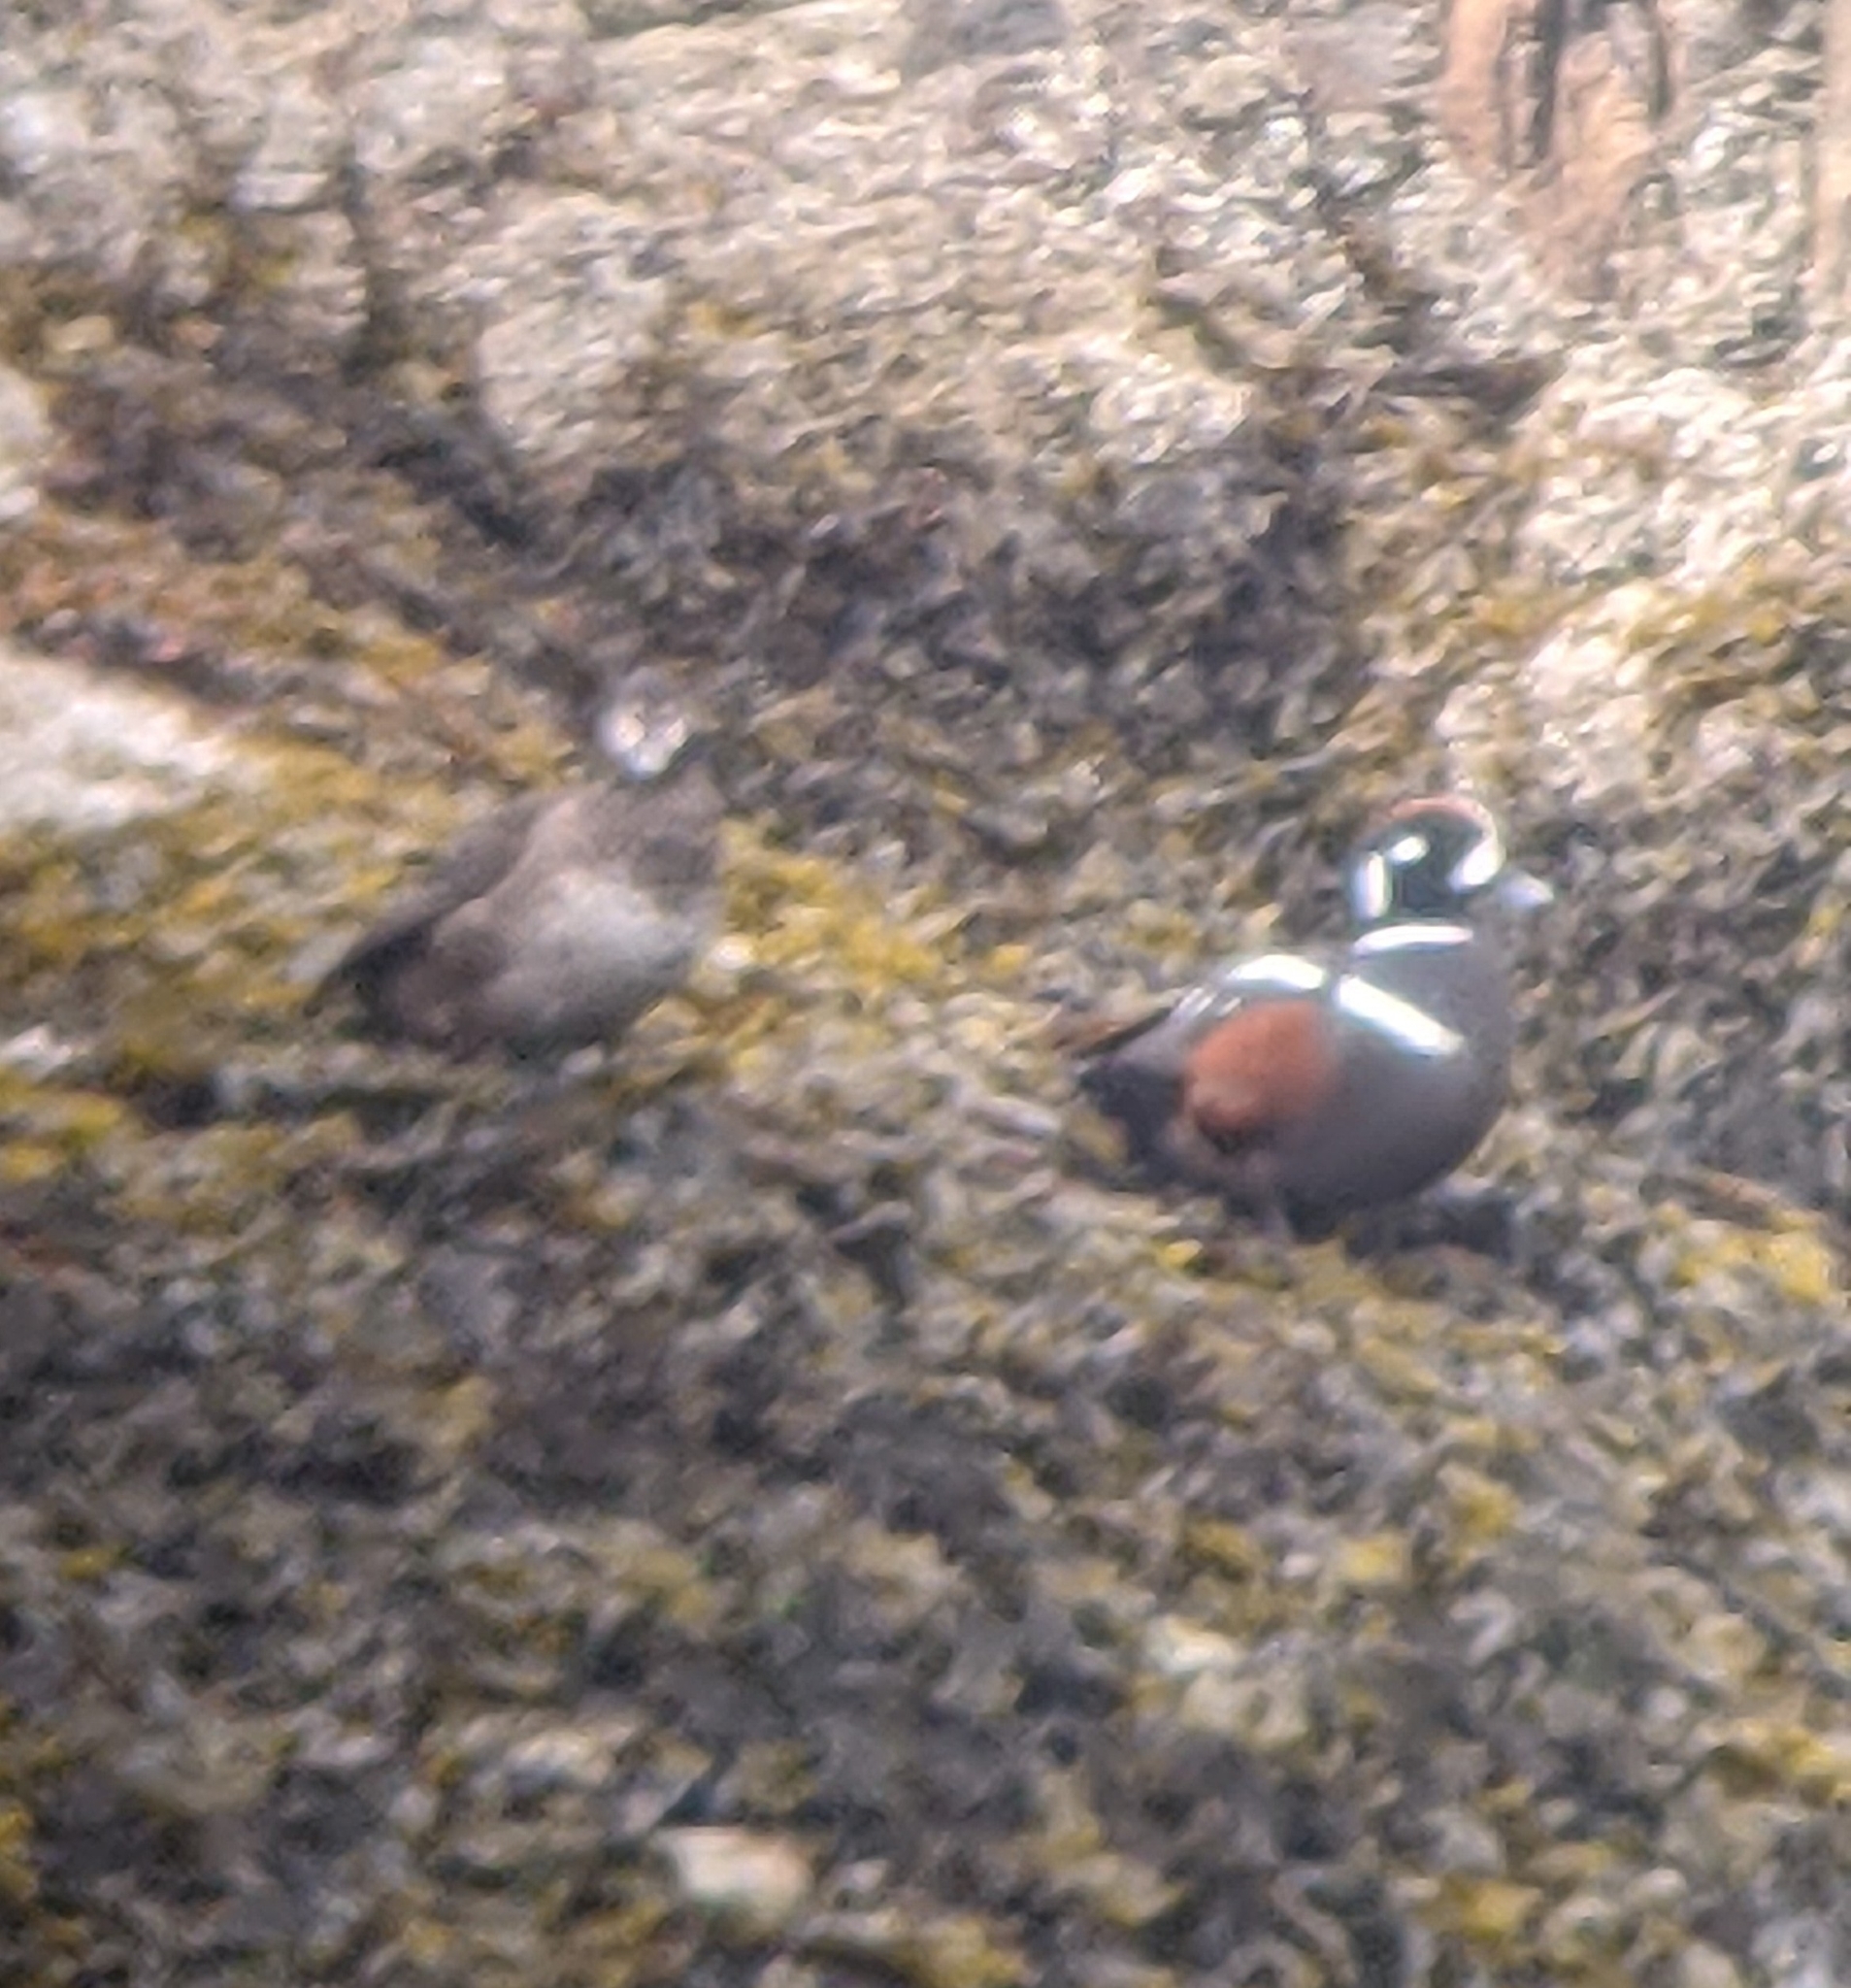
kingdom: Animalia
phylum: Chordata
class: Aves
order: Anseriformes
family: Anatidae
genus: Histrionicus
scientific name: Histrionicus histrionicus
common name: Harlequin duck
